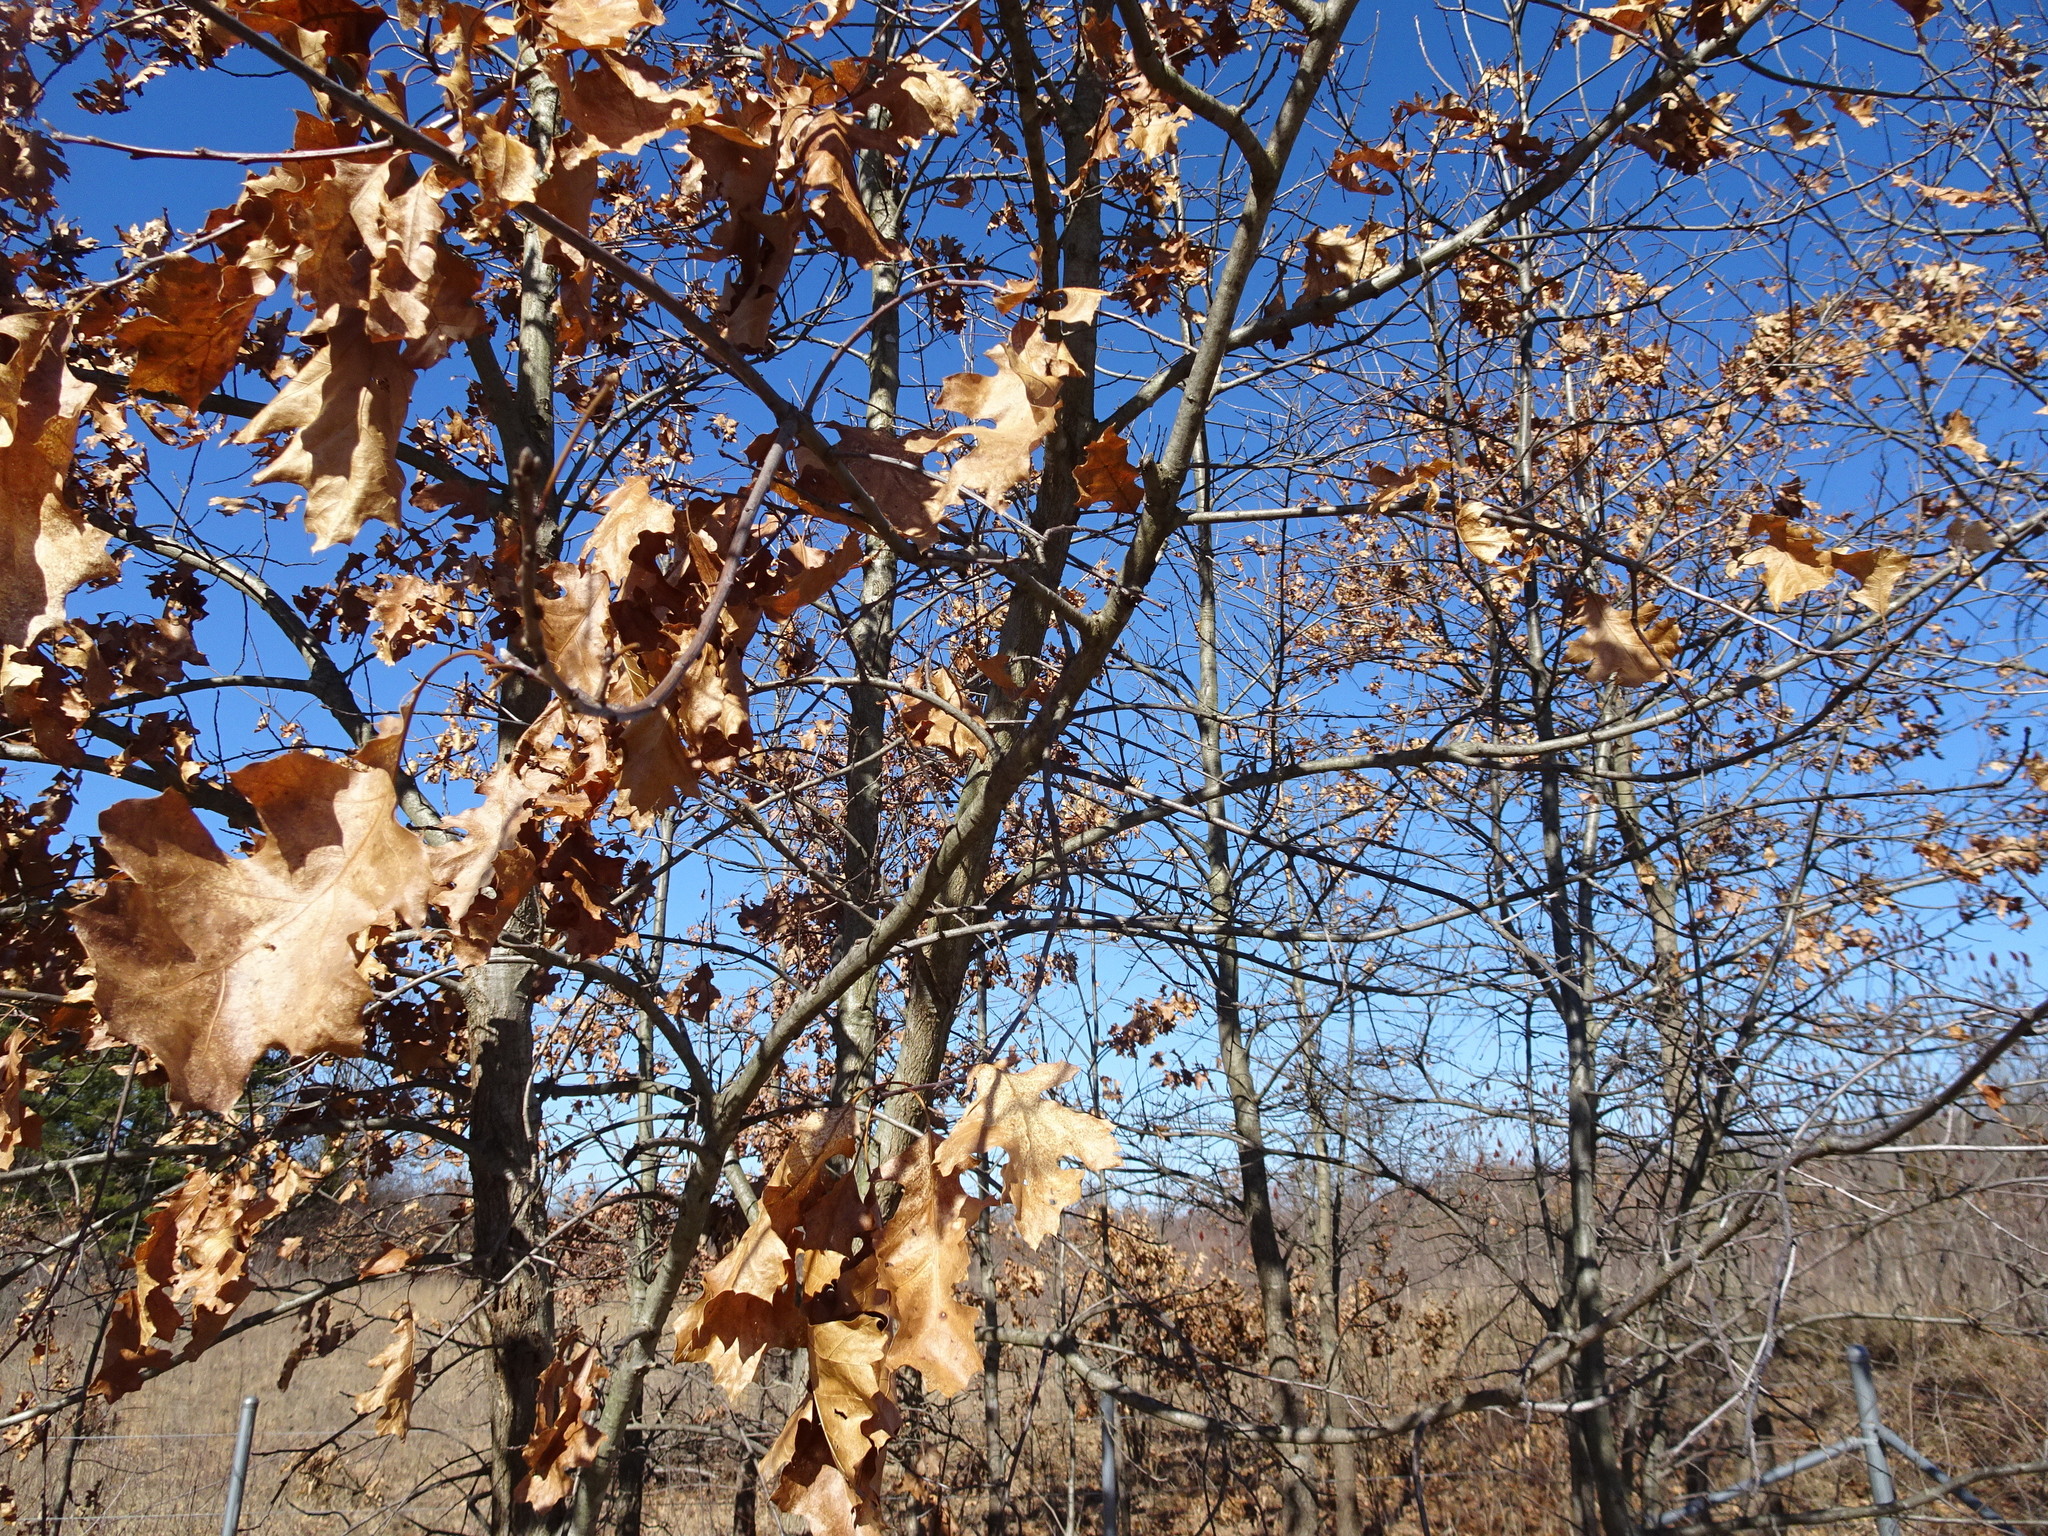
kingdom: Plantae
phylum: Tracheophyta
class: Magnoliopsida
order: Fagales
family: Fagaceae
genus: Quercus
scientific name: Quercus velutina
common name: Black oak
